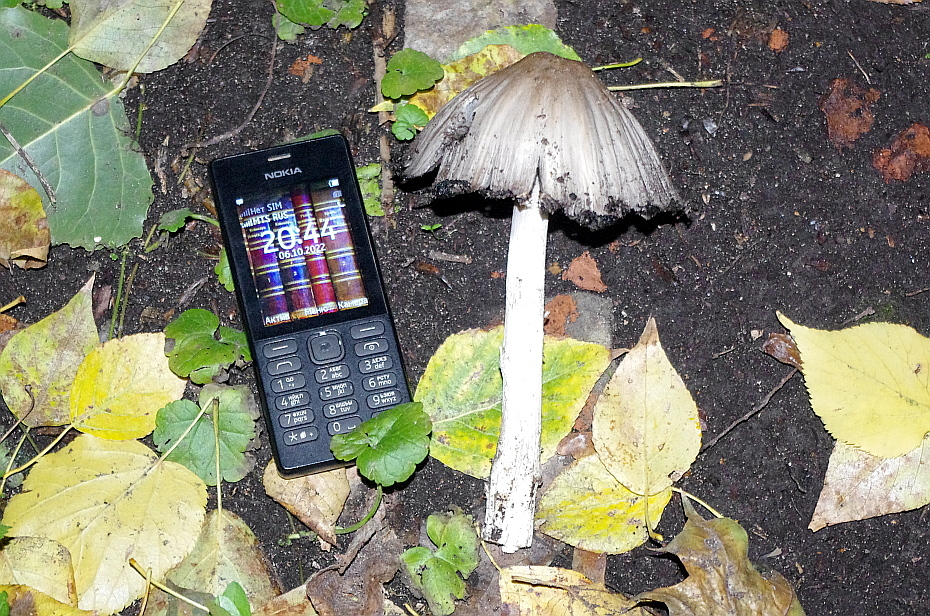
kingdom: Fungi
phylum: Basidiomycota
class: Agaricomycetes
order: Agaricales
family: Psathyrellaceae
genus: Coprinopsis
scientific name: Coprinopsis atramentaria
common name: Common ink-cap
